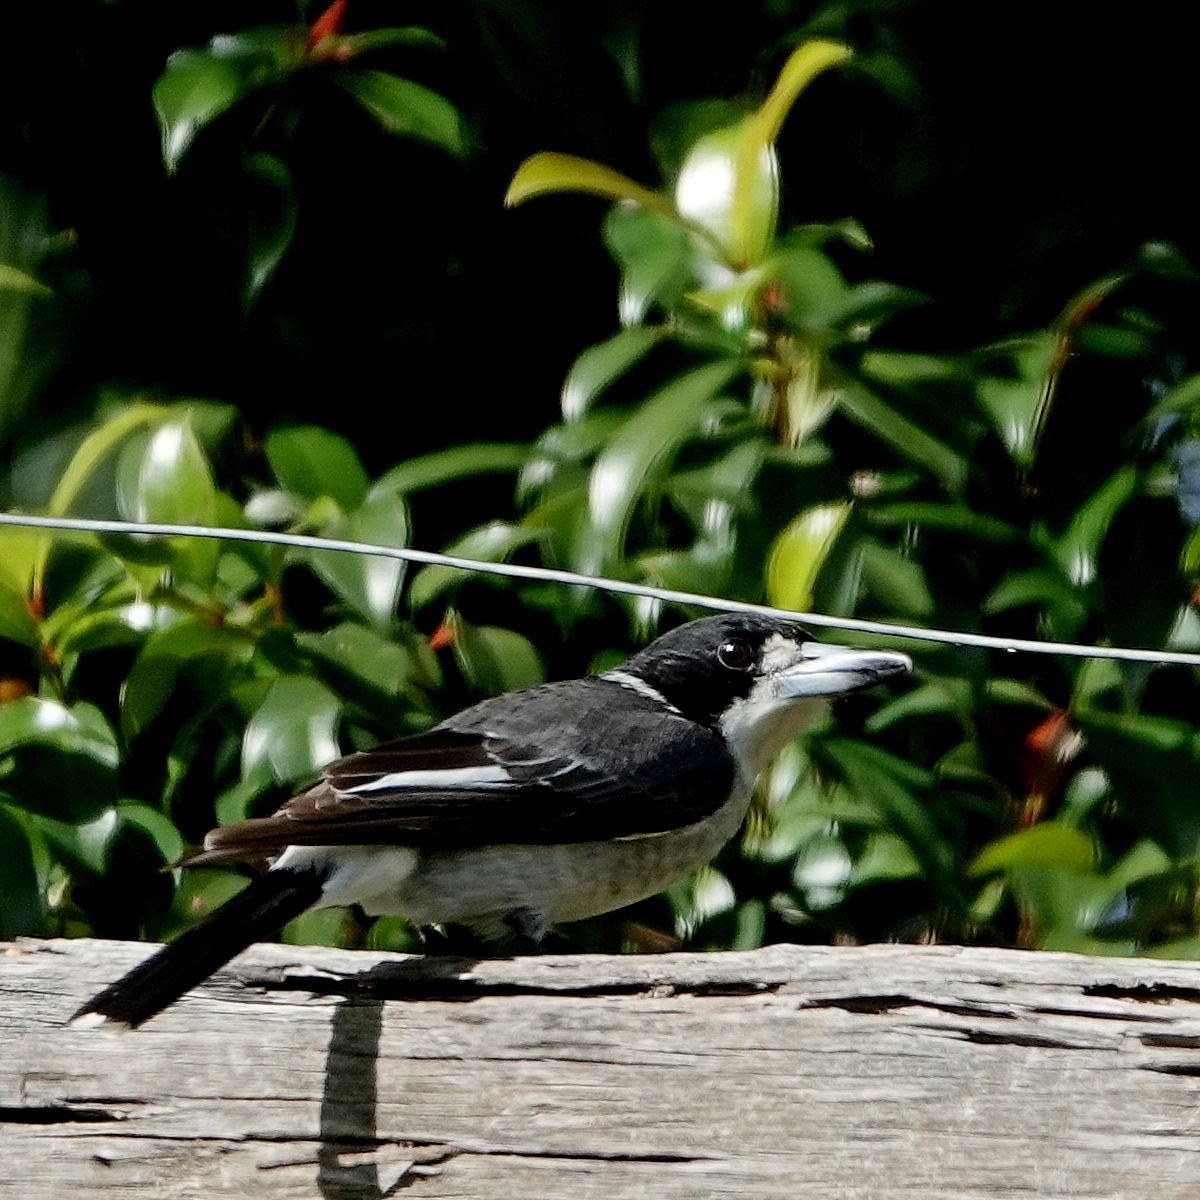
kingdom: Animalia
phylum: Chordata
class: Aves
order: Passeriformes
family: Cracticidae
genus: Cracticus
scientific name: Cracticus torquatus
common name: Grey butcherbird
